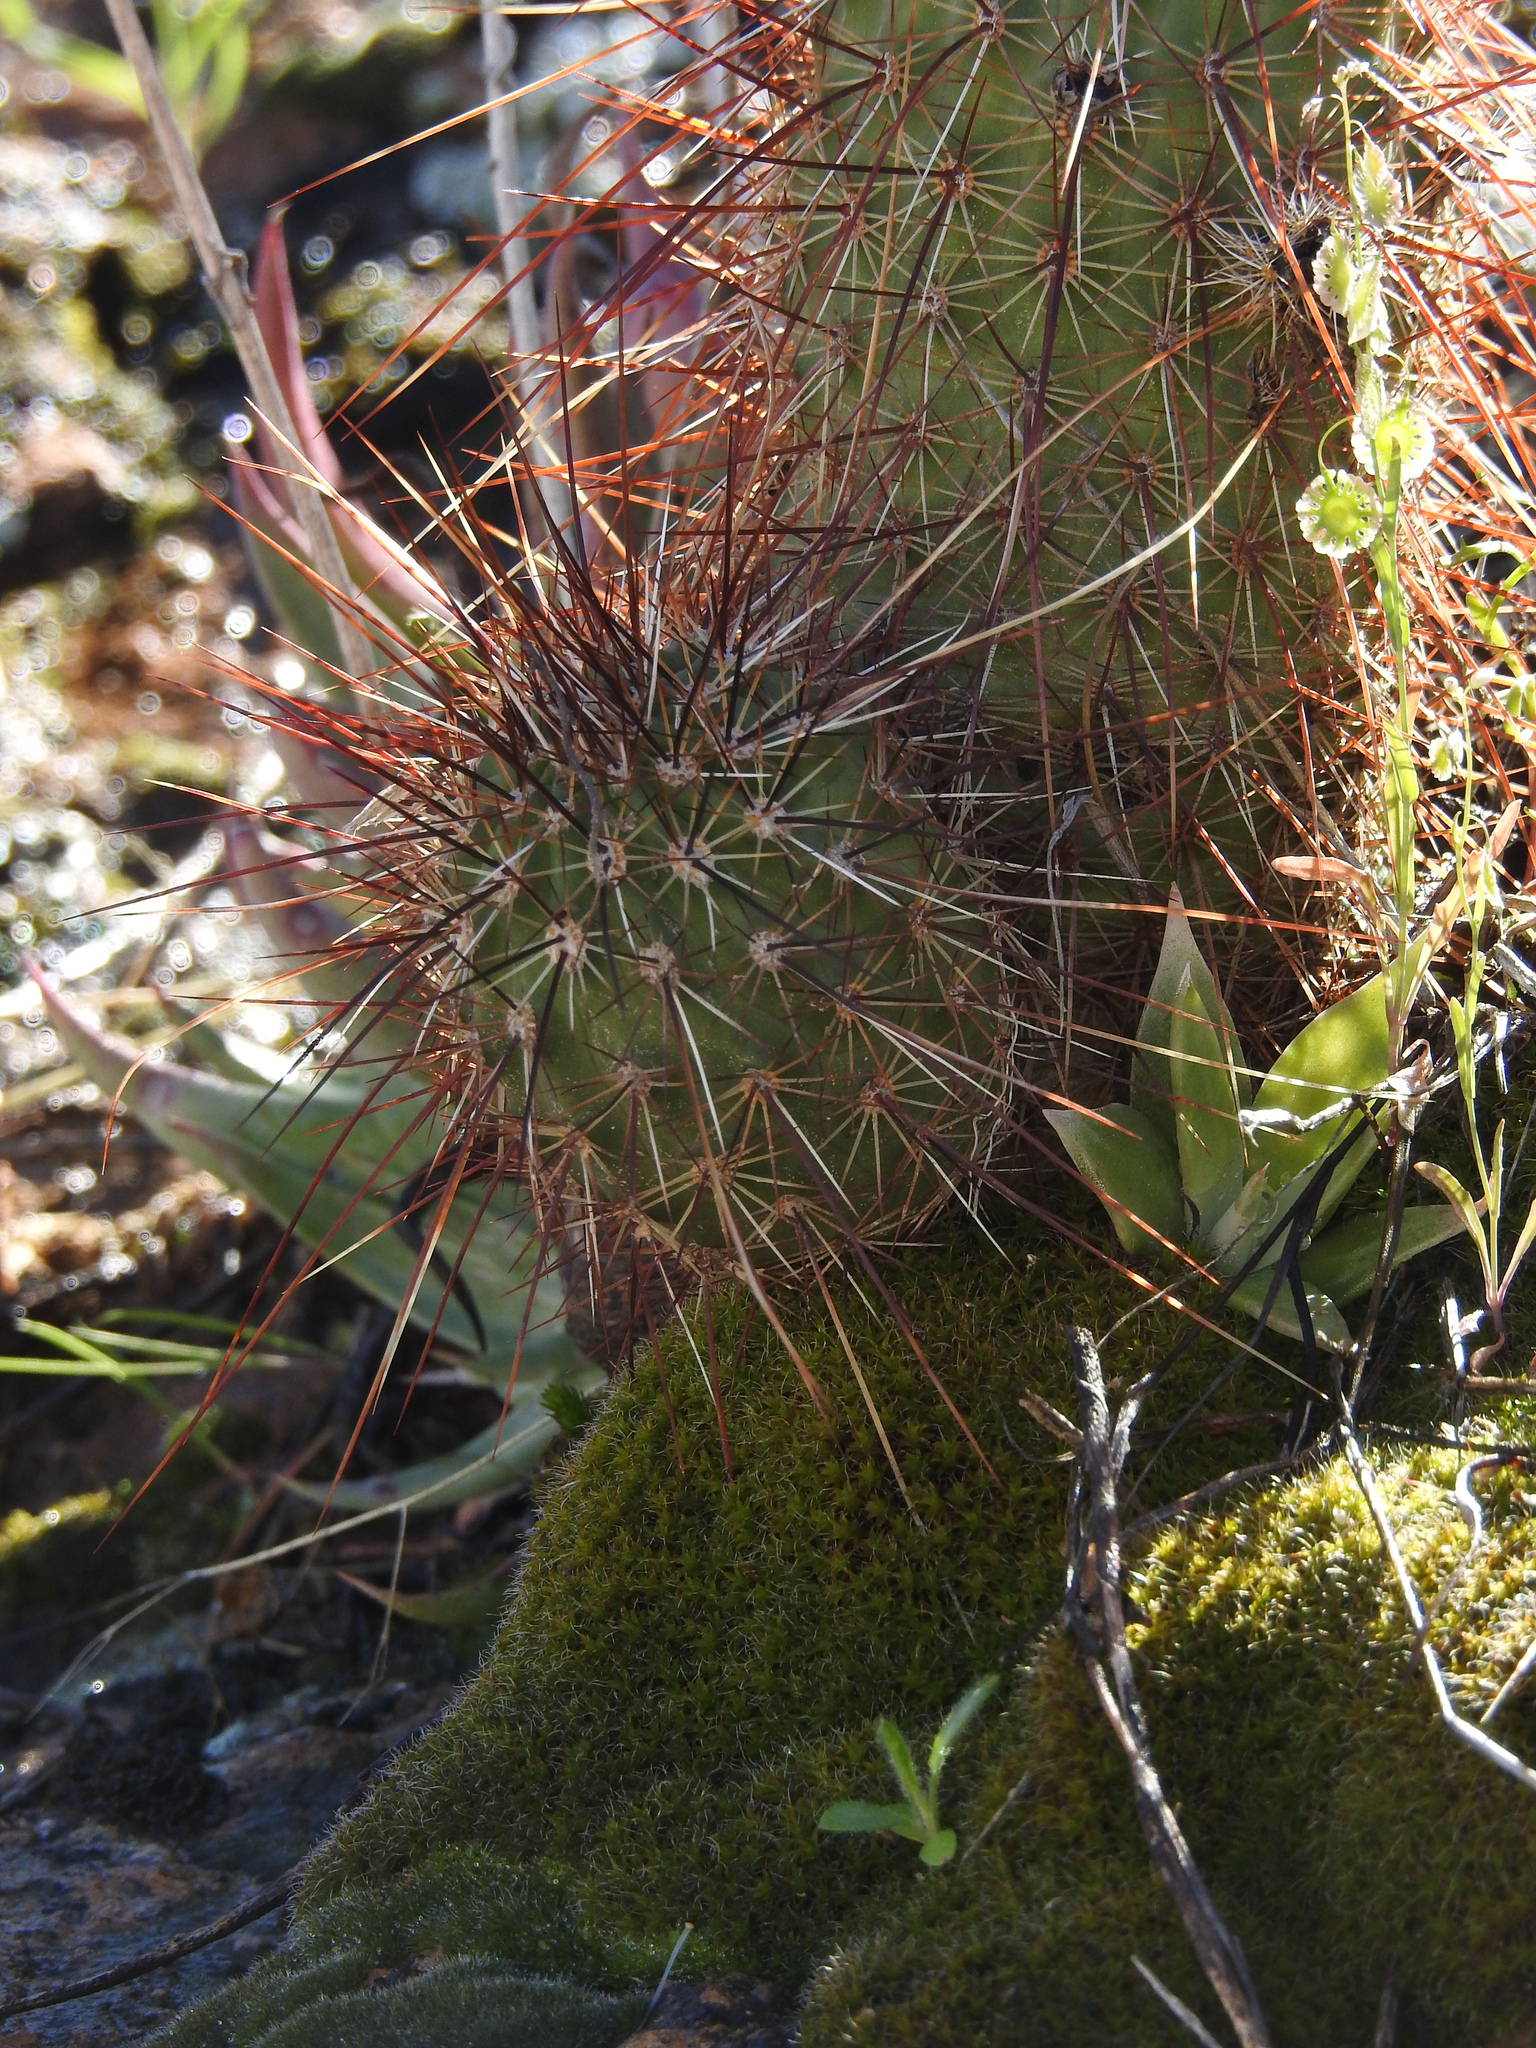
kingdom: Plantae
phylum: Tracheophyta
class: Magnoliopsida
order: Caryophyllales
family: Cactaceae
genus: Echinocereus
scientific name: Echinocereus bonkerae
